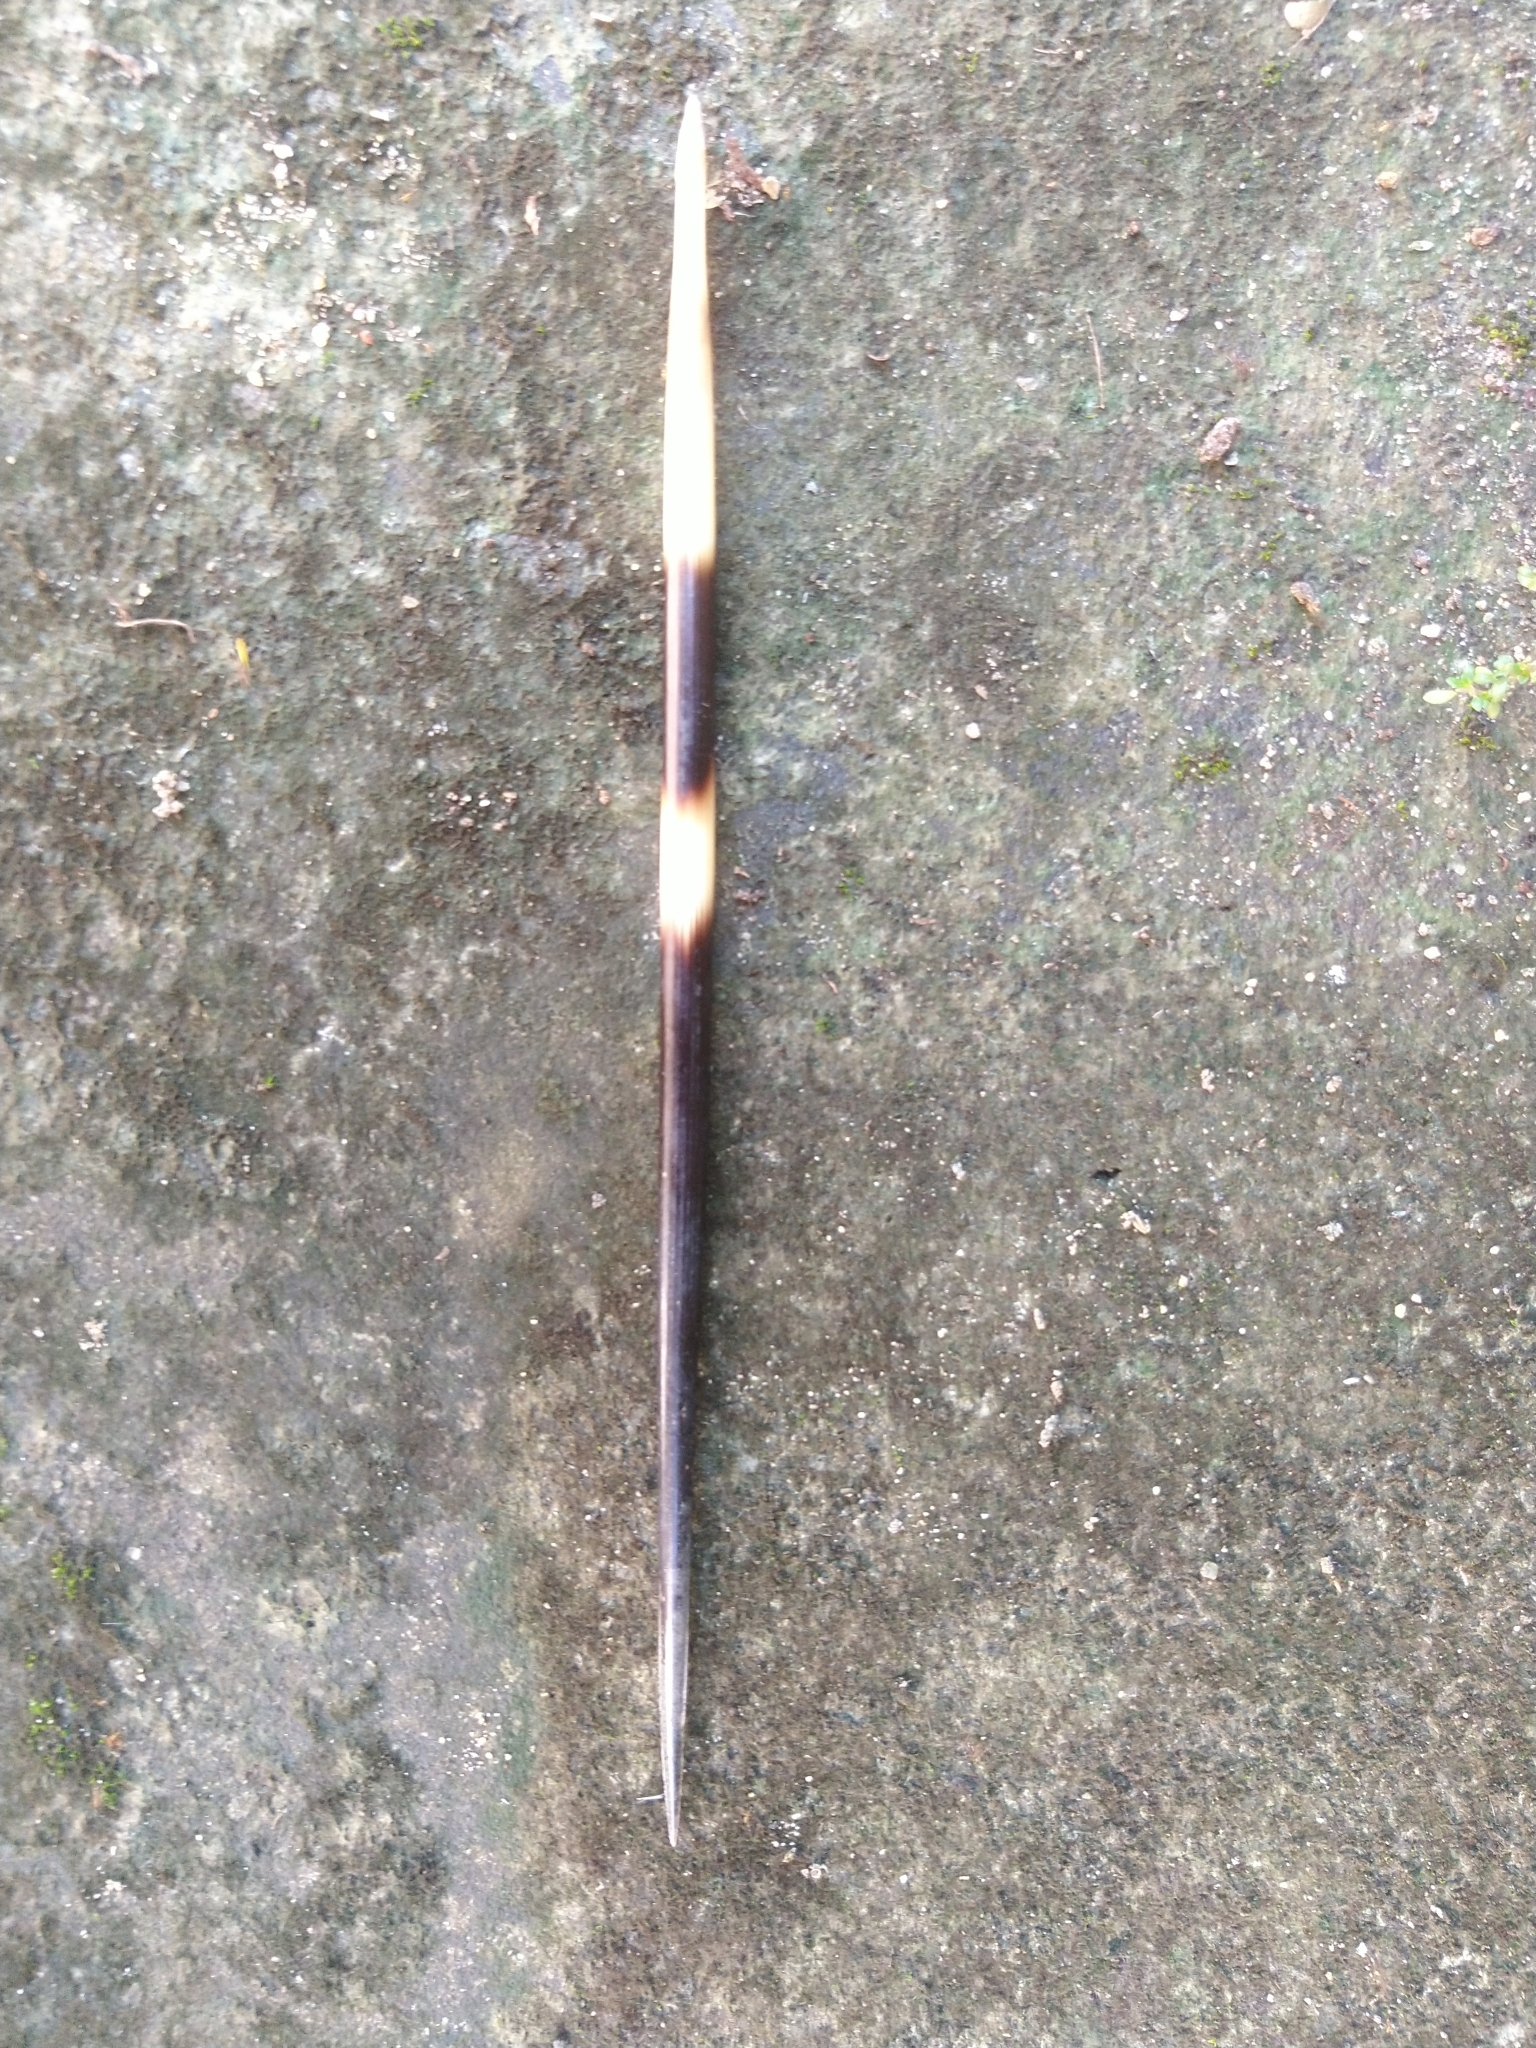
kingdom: Animalia
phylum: Chordata
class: Mammalia
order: Rodentia
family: Hystricidae
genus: Hystrix
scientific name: Hystrix indica
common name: Indian crested porcupine
